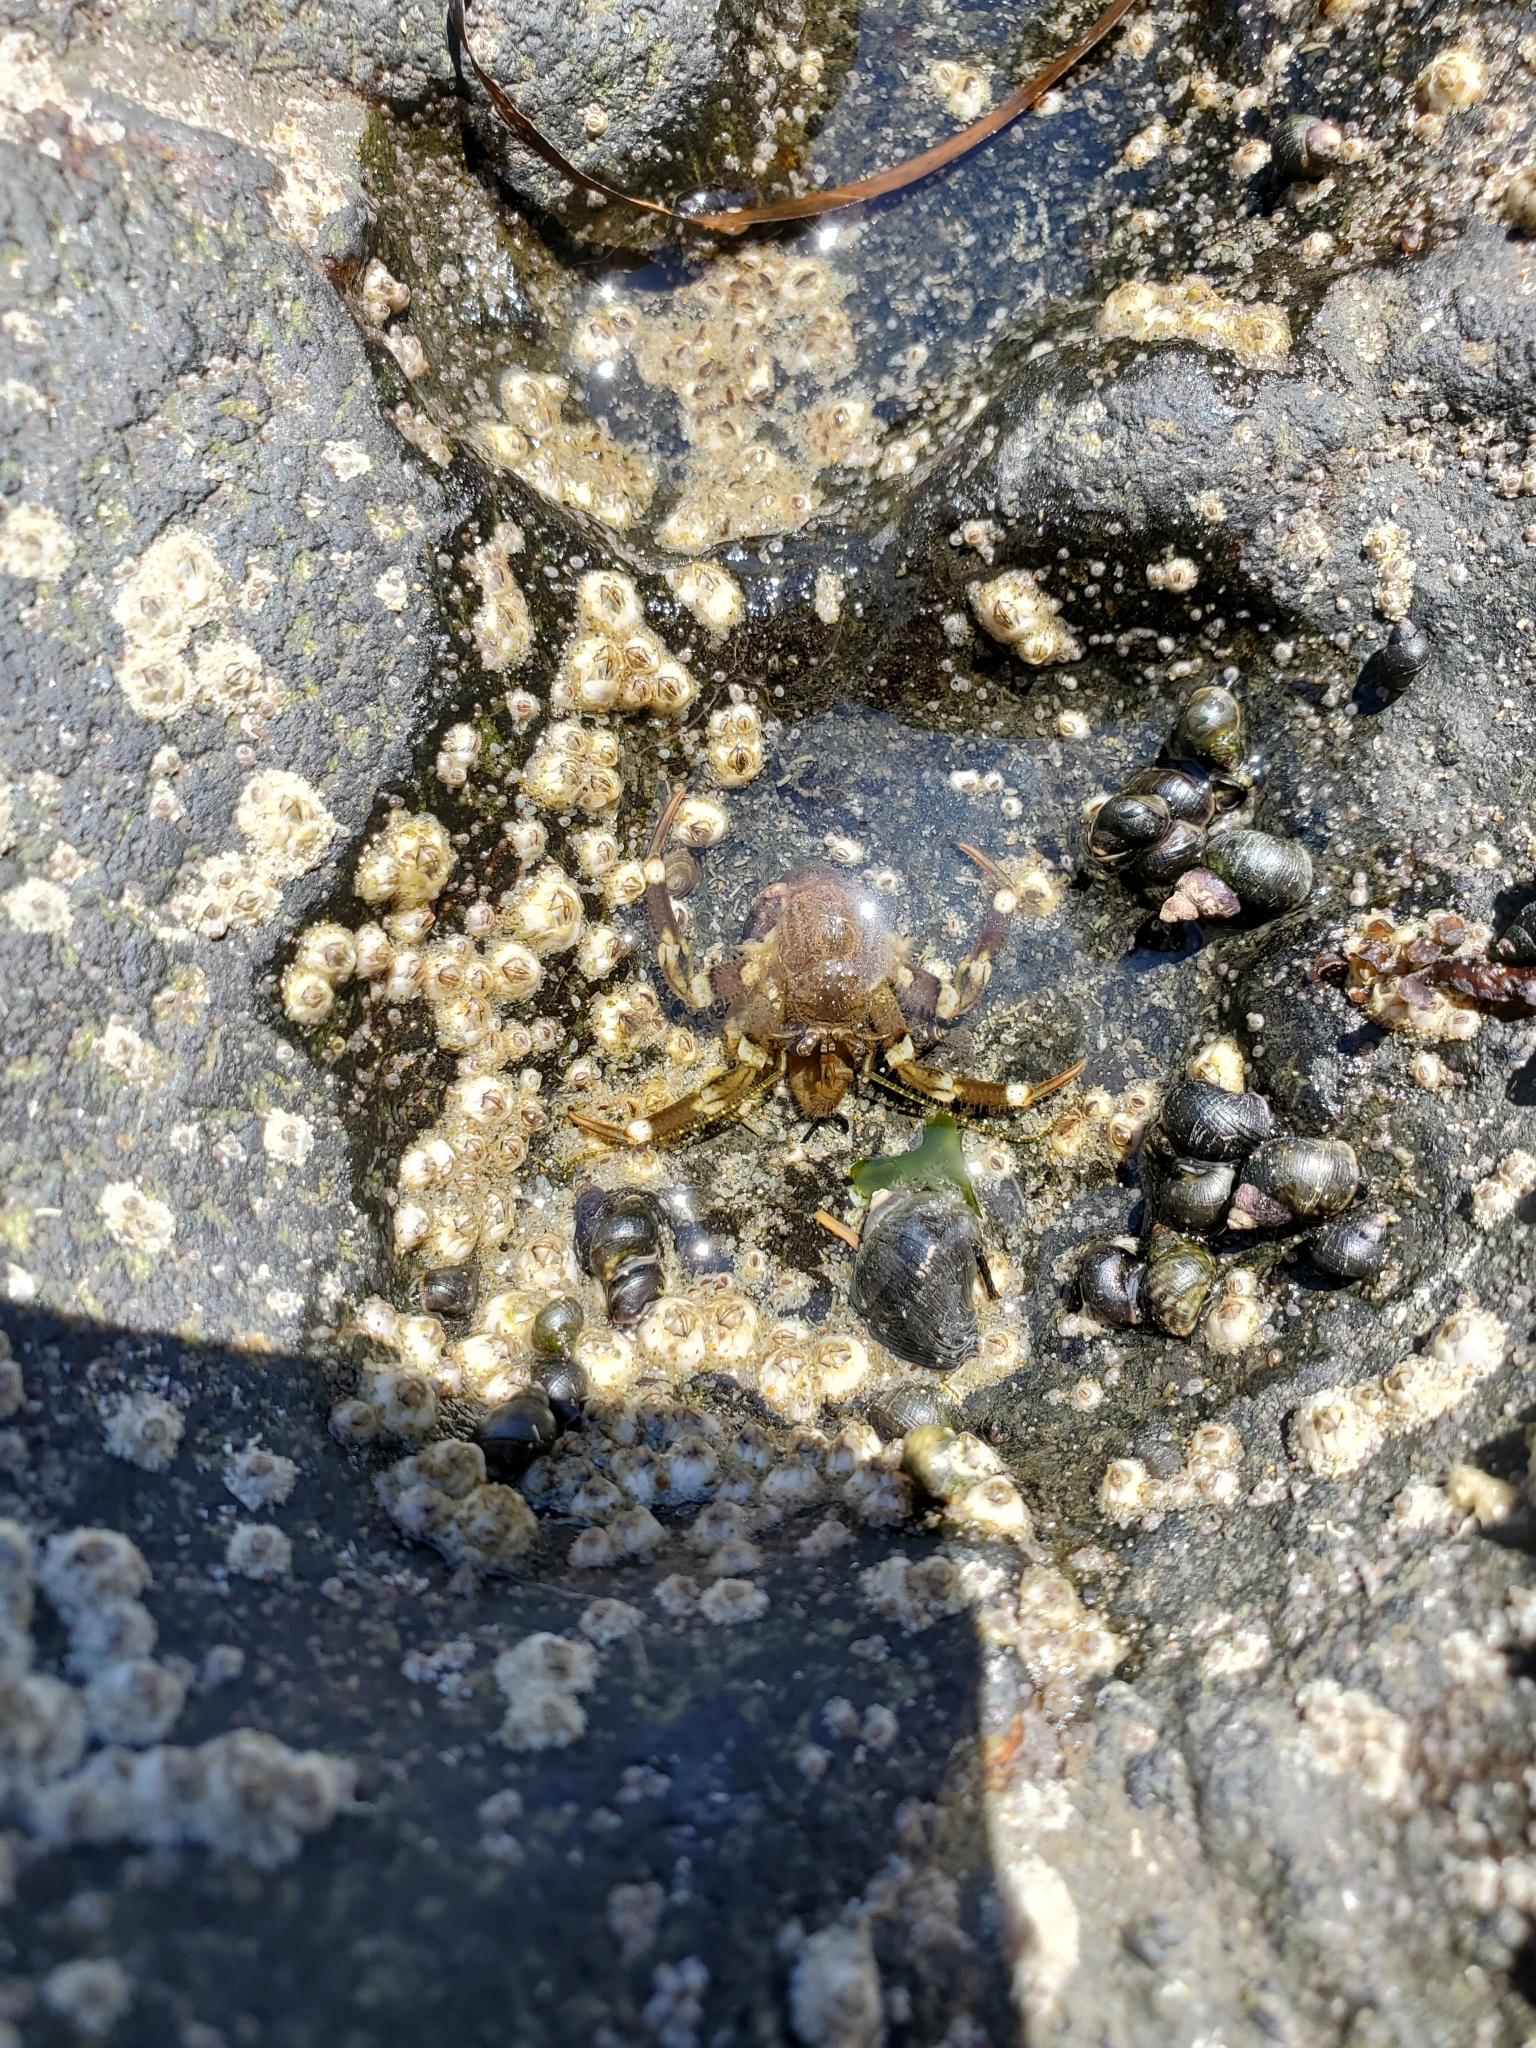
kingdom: Animalia
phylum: Arthropoda
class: Malacostraca
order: Decapoda
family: Paguridae
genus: Pagurus
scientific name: Pagurus hirsutiusculus
